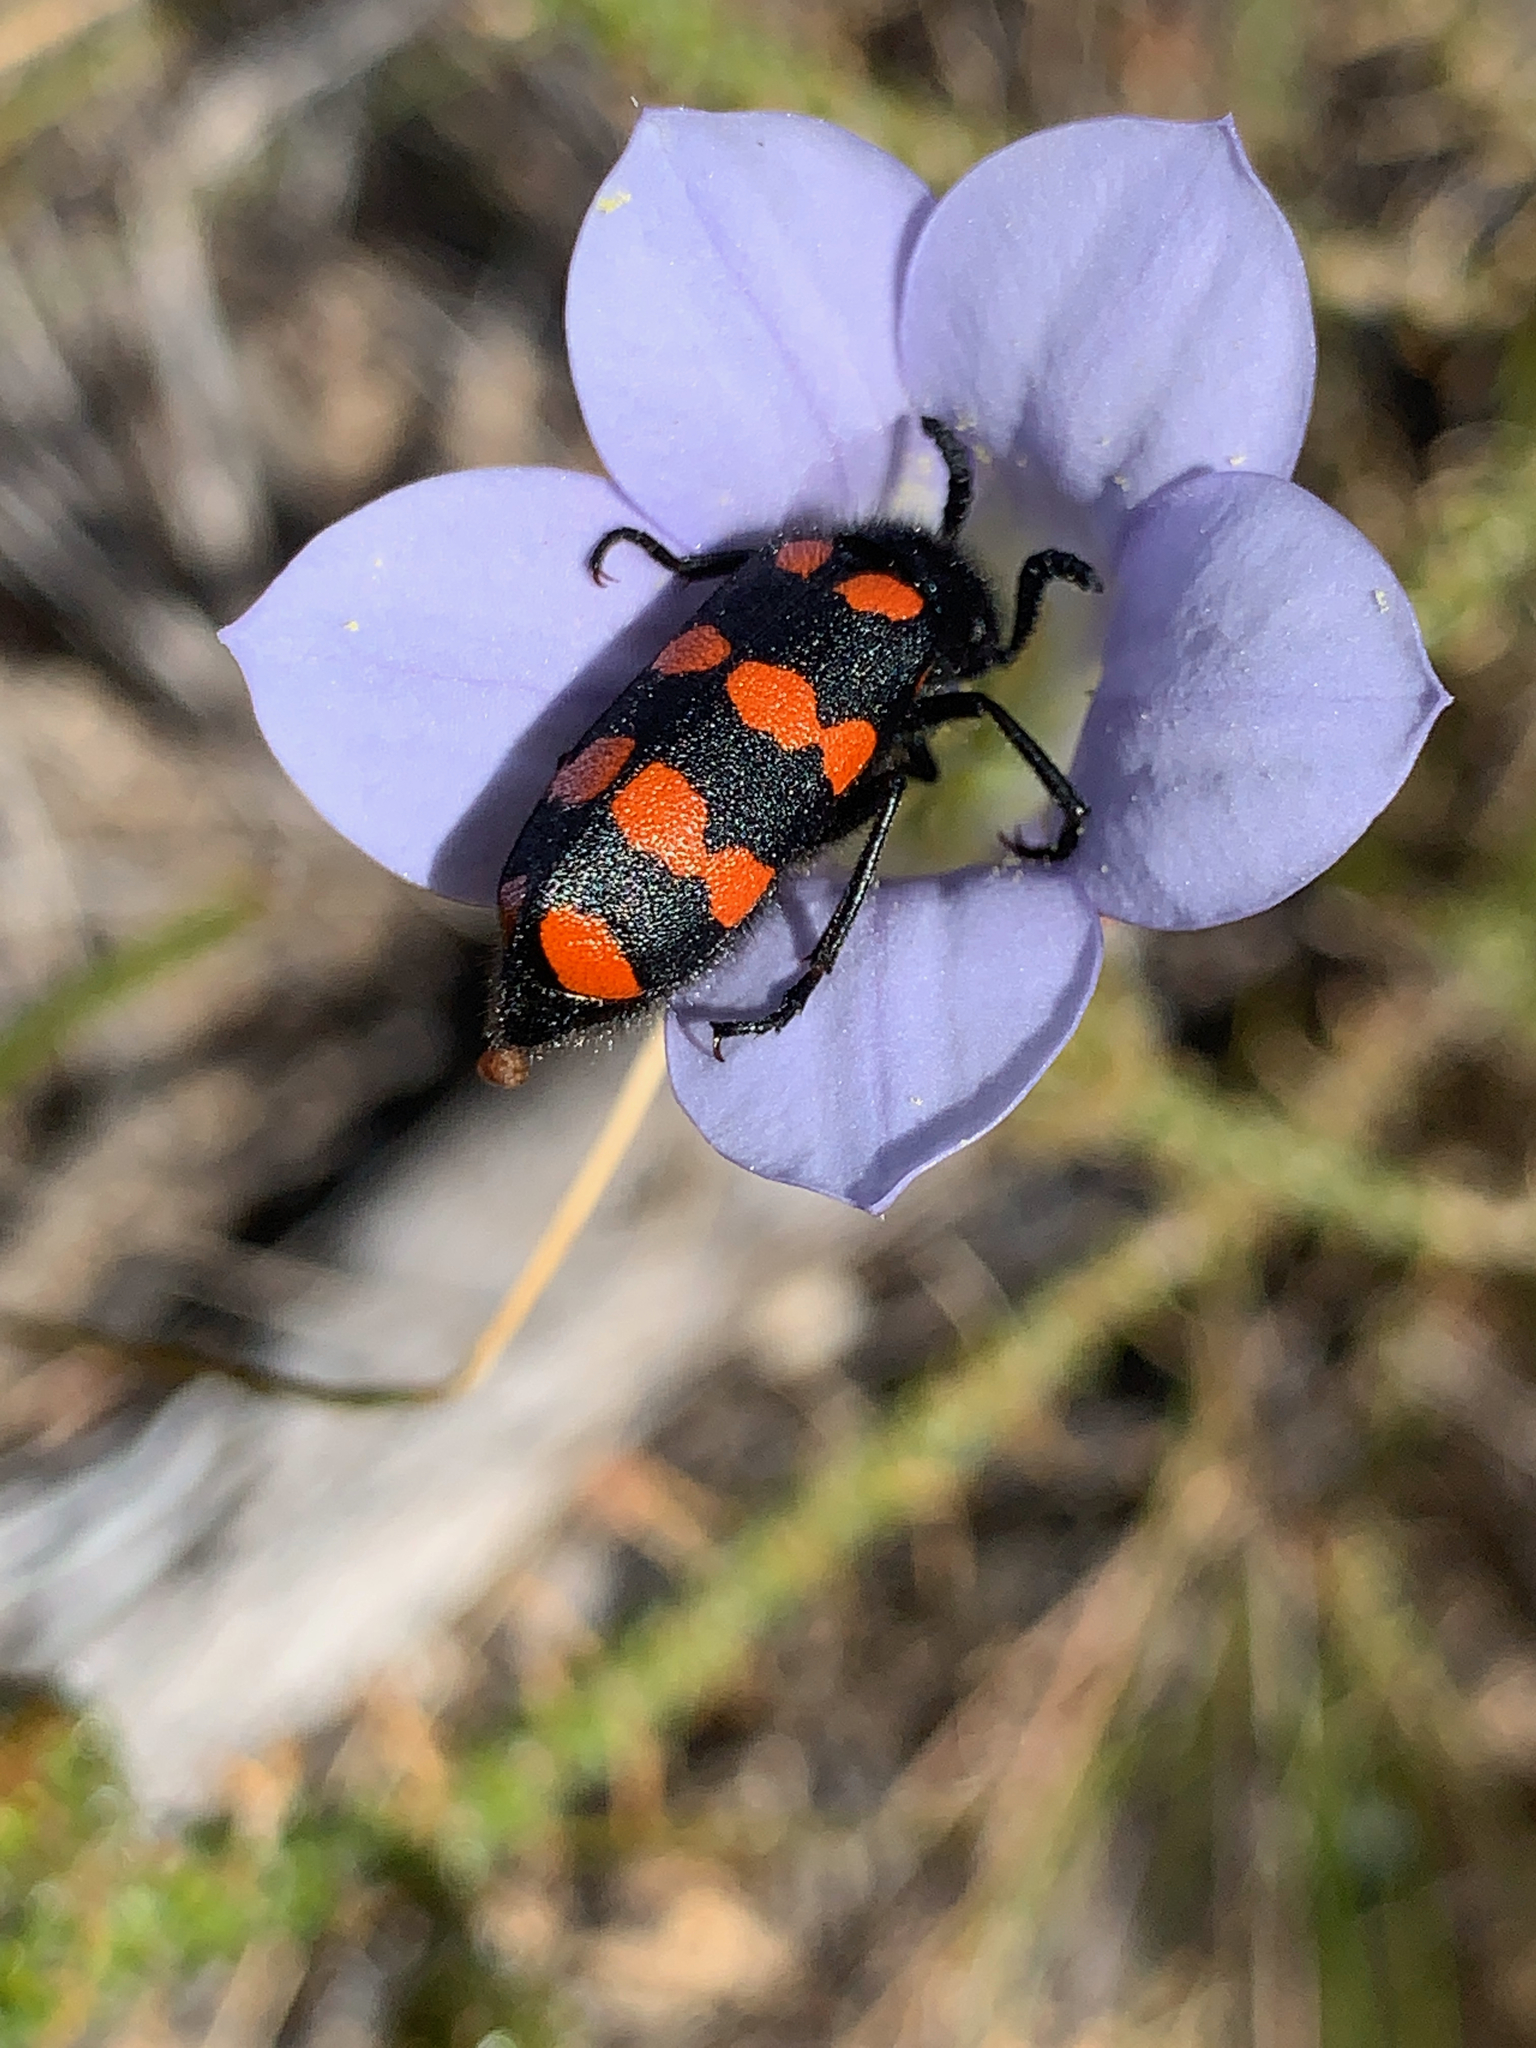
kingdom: Animalia
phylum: Arthropoda
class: Insecta
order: Coleoptera
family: Meloidae
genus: Ceroctis
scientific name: Ceroctis gyllenhalli
